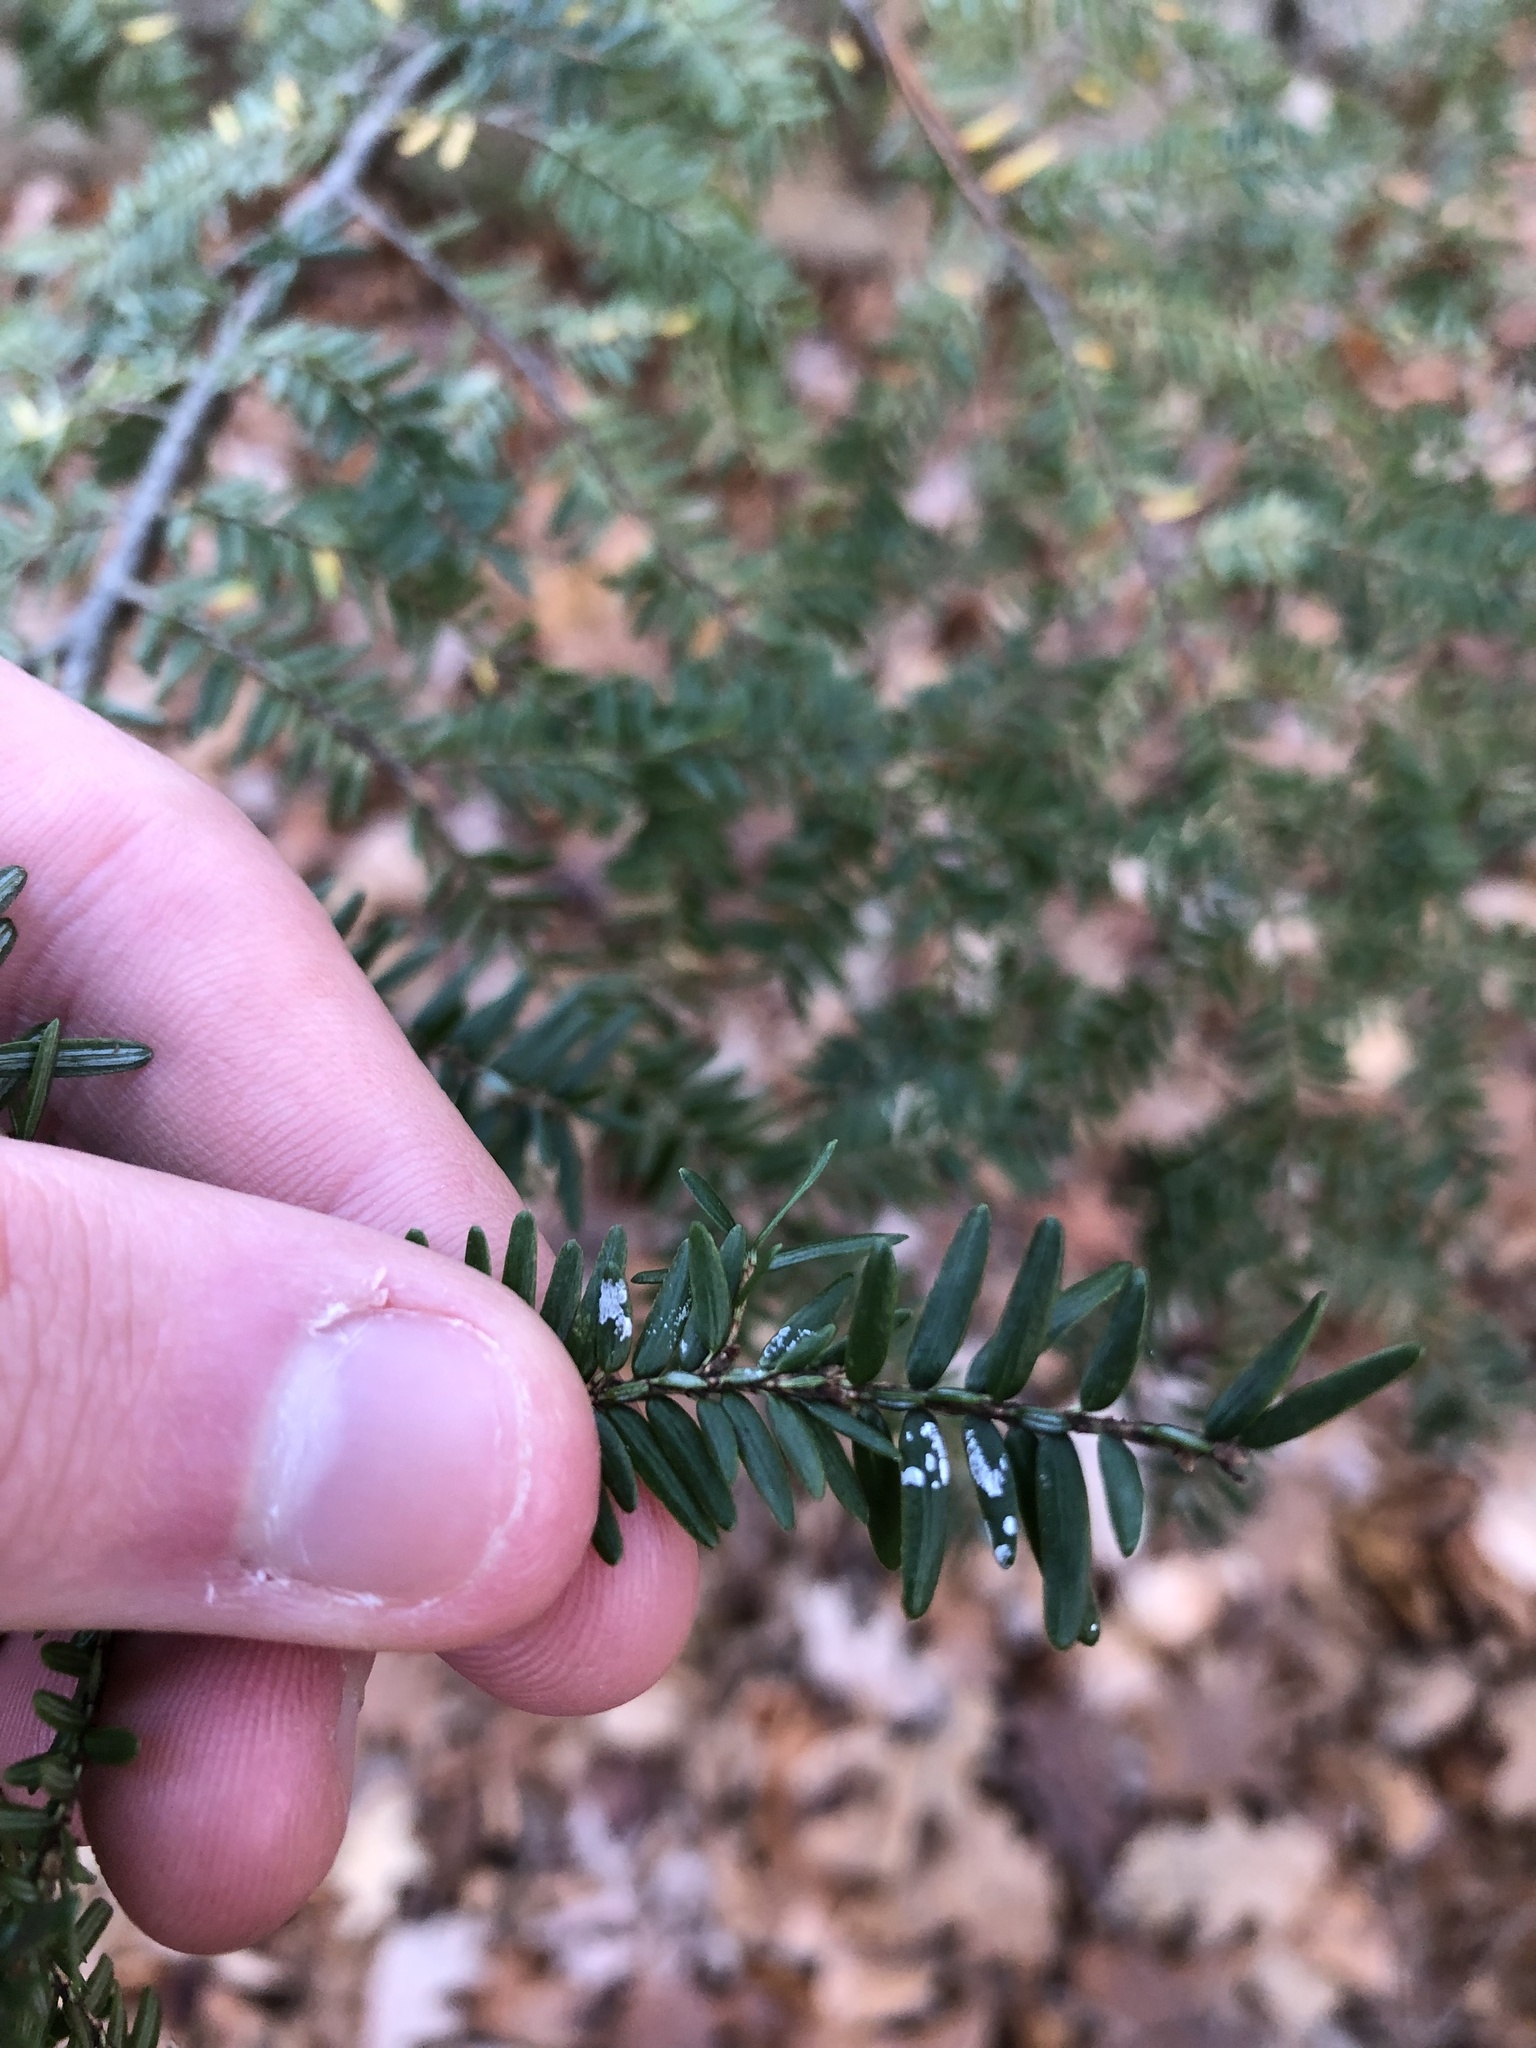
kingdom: Plantae
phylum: Tracheophyta
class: Pinopsida
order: Pinales
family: Pinaceae
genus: Tsuga
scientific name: Tsuga canadensis
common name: Eastern hemlock
